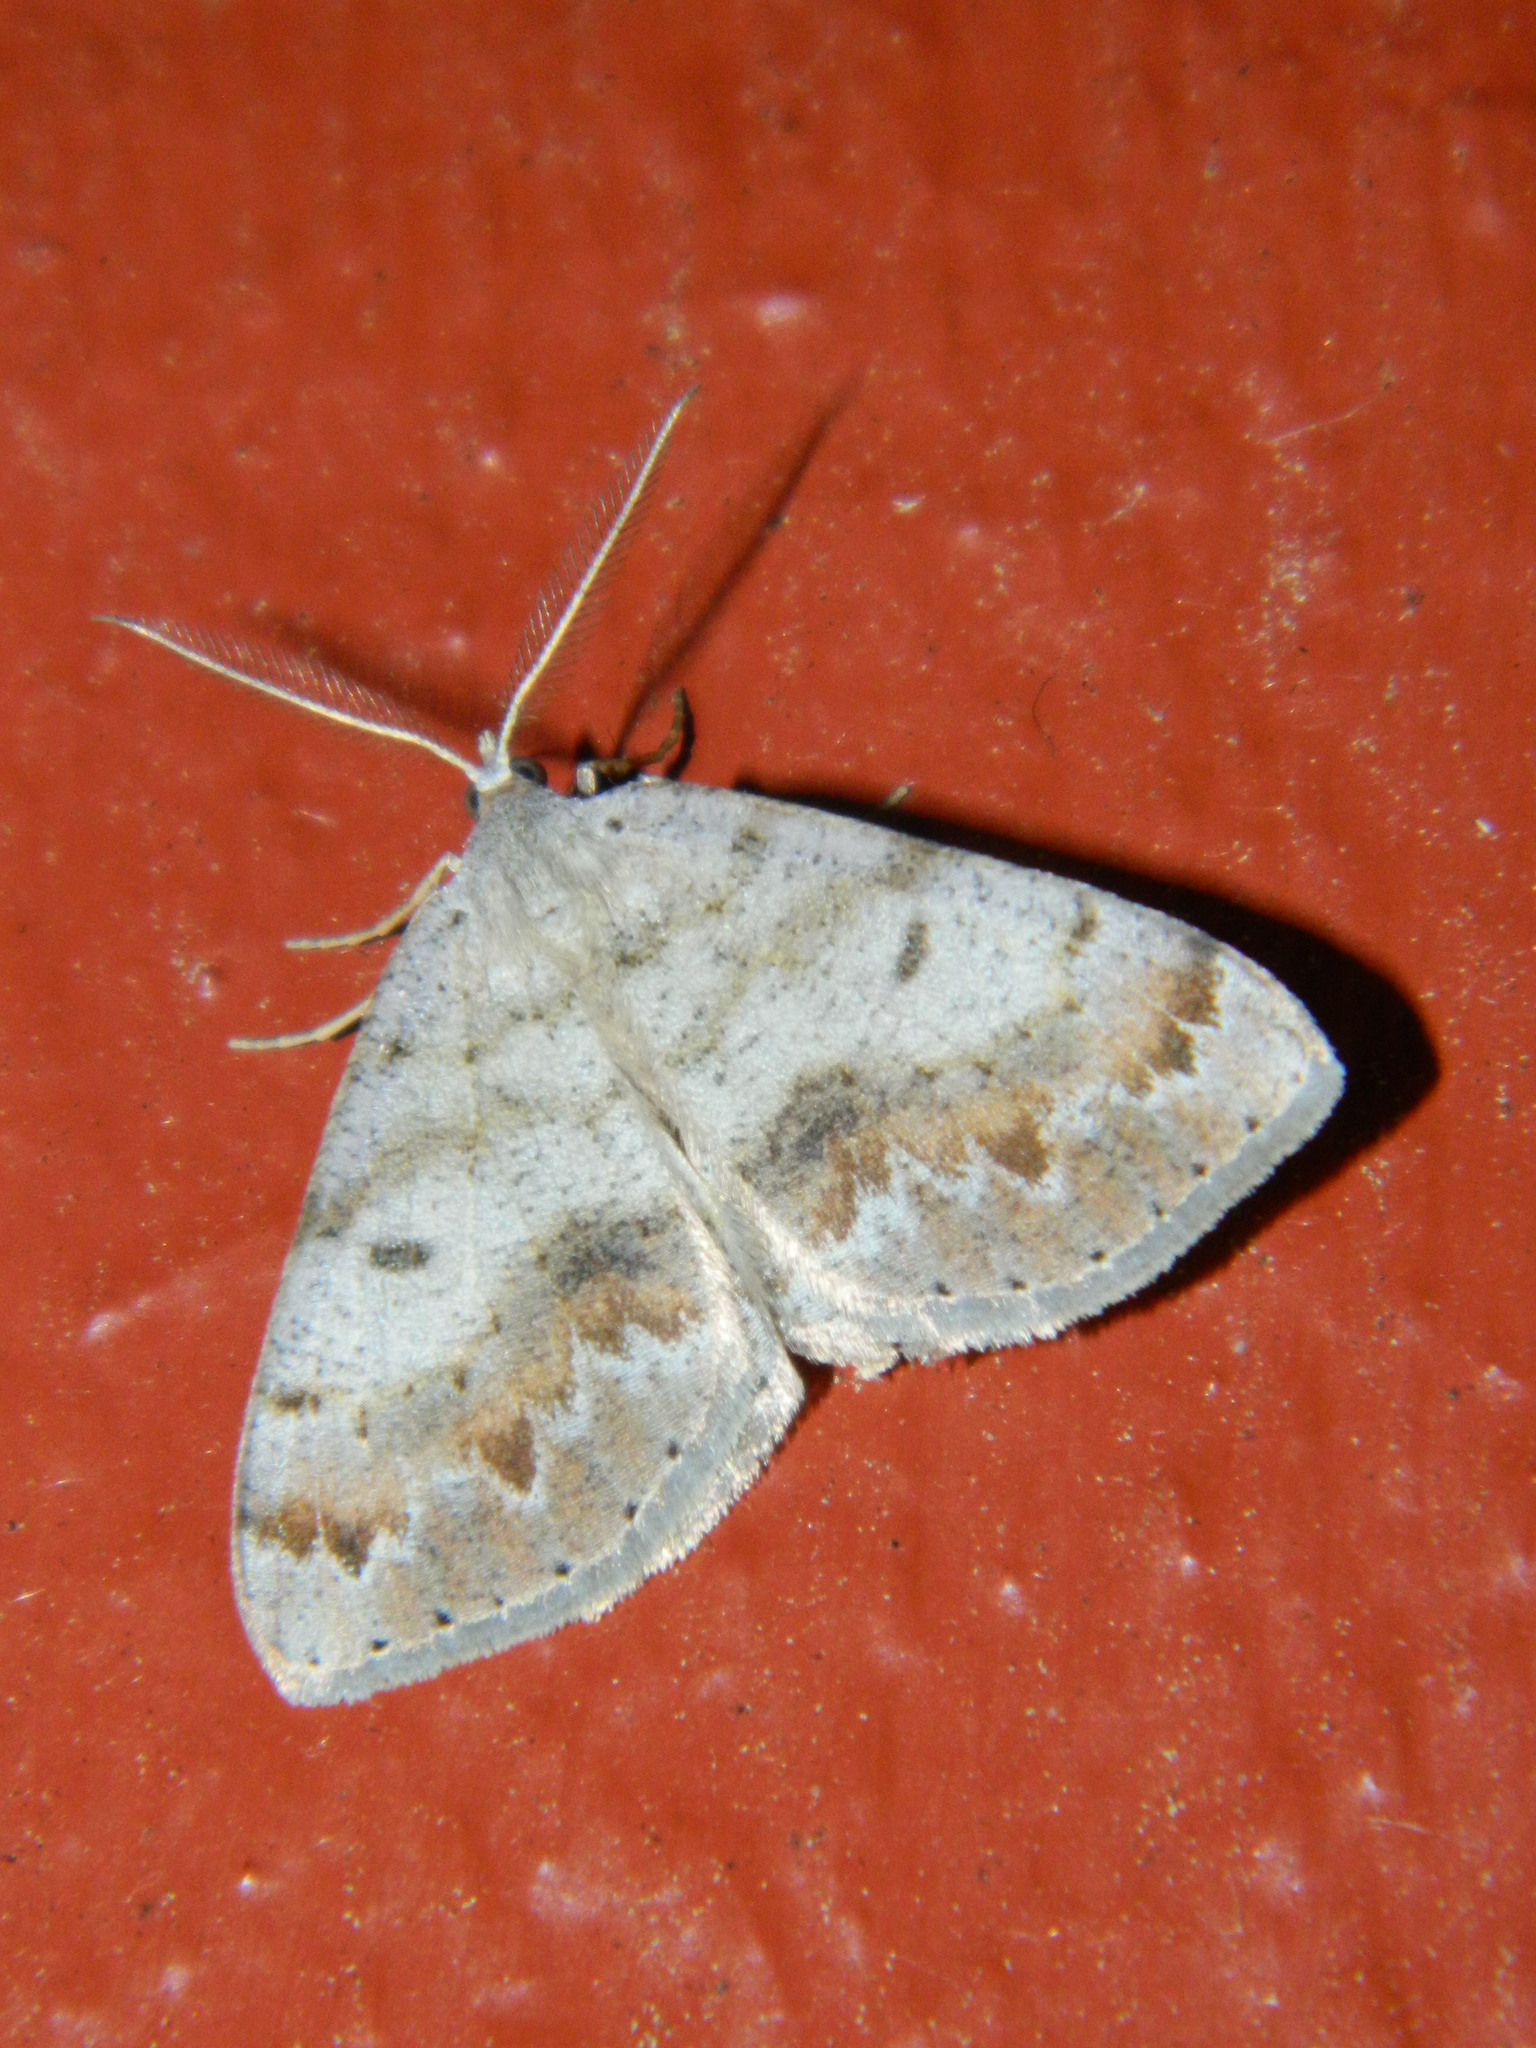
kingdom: Animalia
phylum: Arthropoda
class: Insecta
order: Lepidoptera
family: Geometridae
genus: Macaria
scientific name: Macaria loricaria
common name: False bruce spanworm
